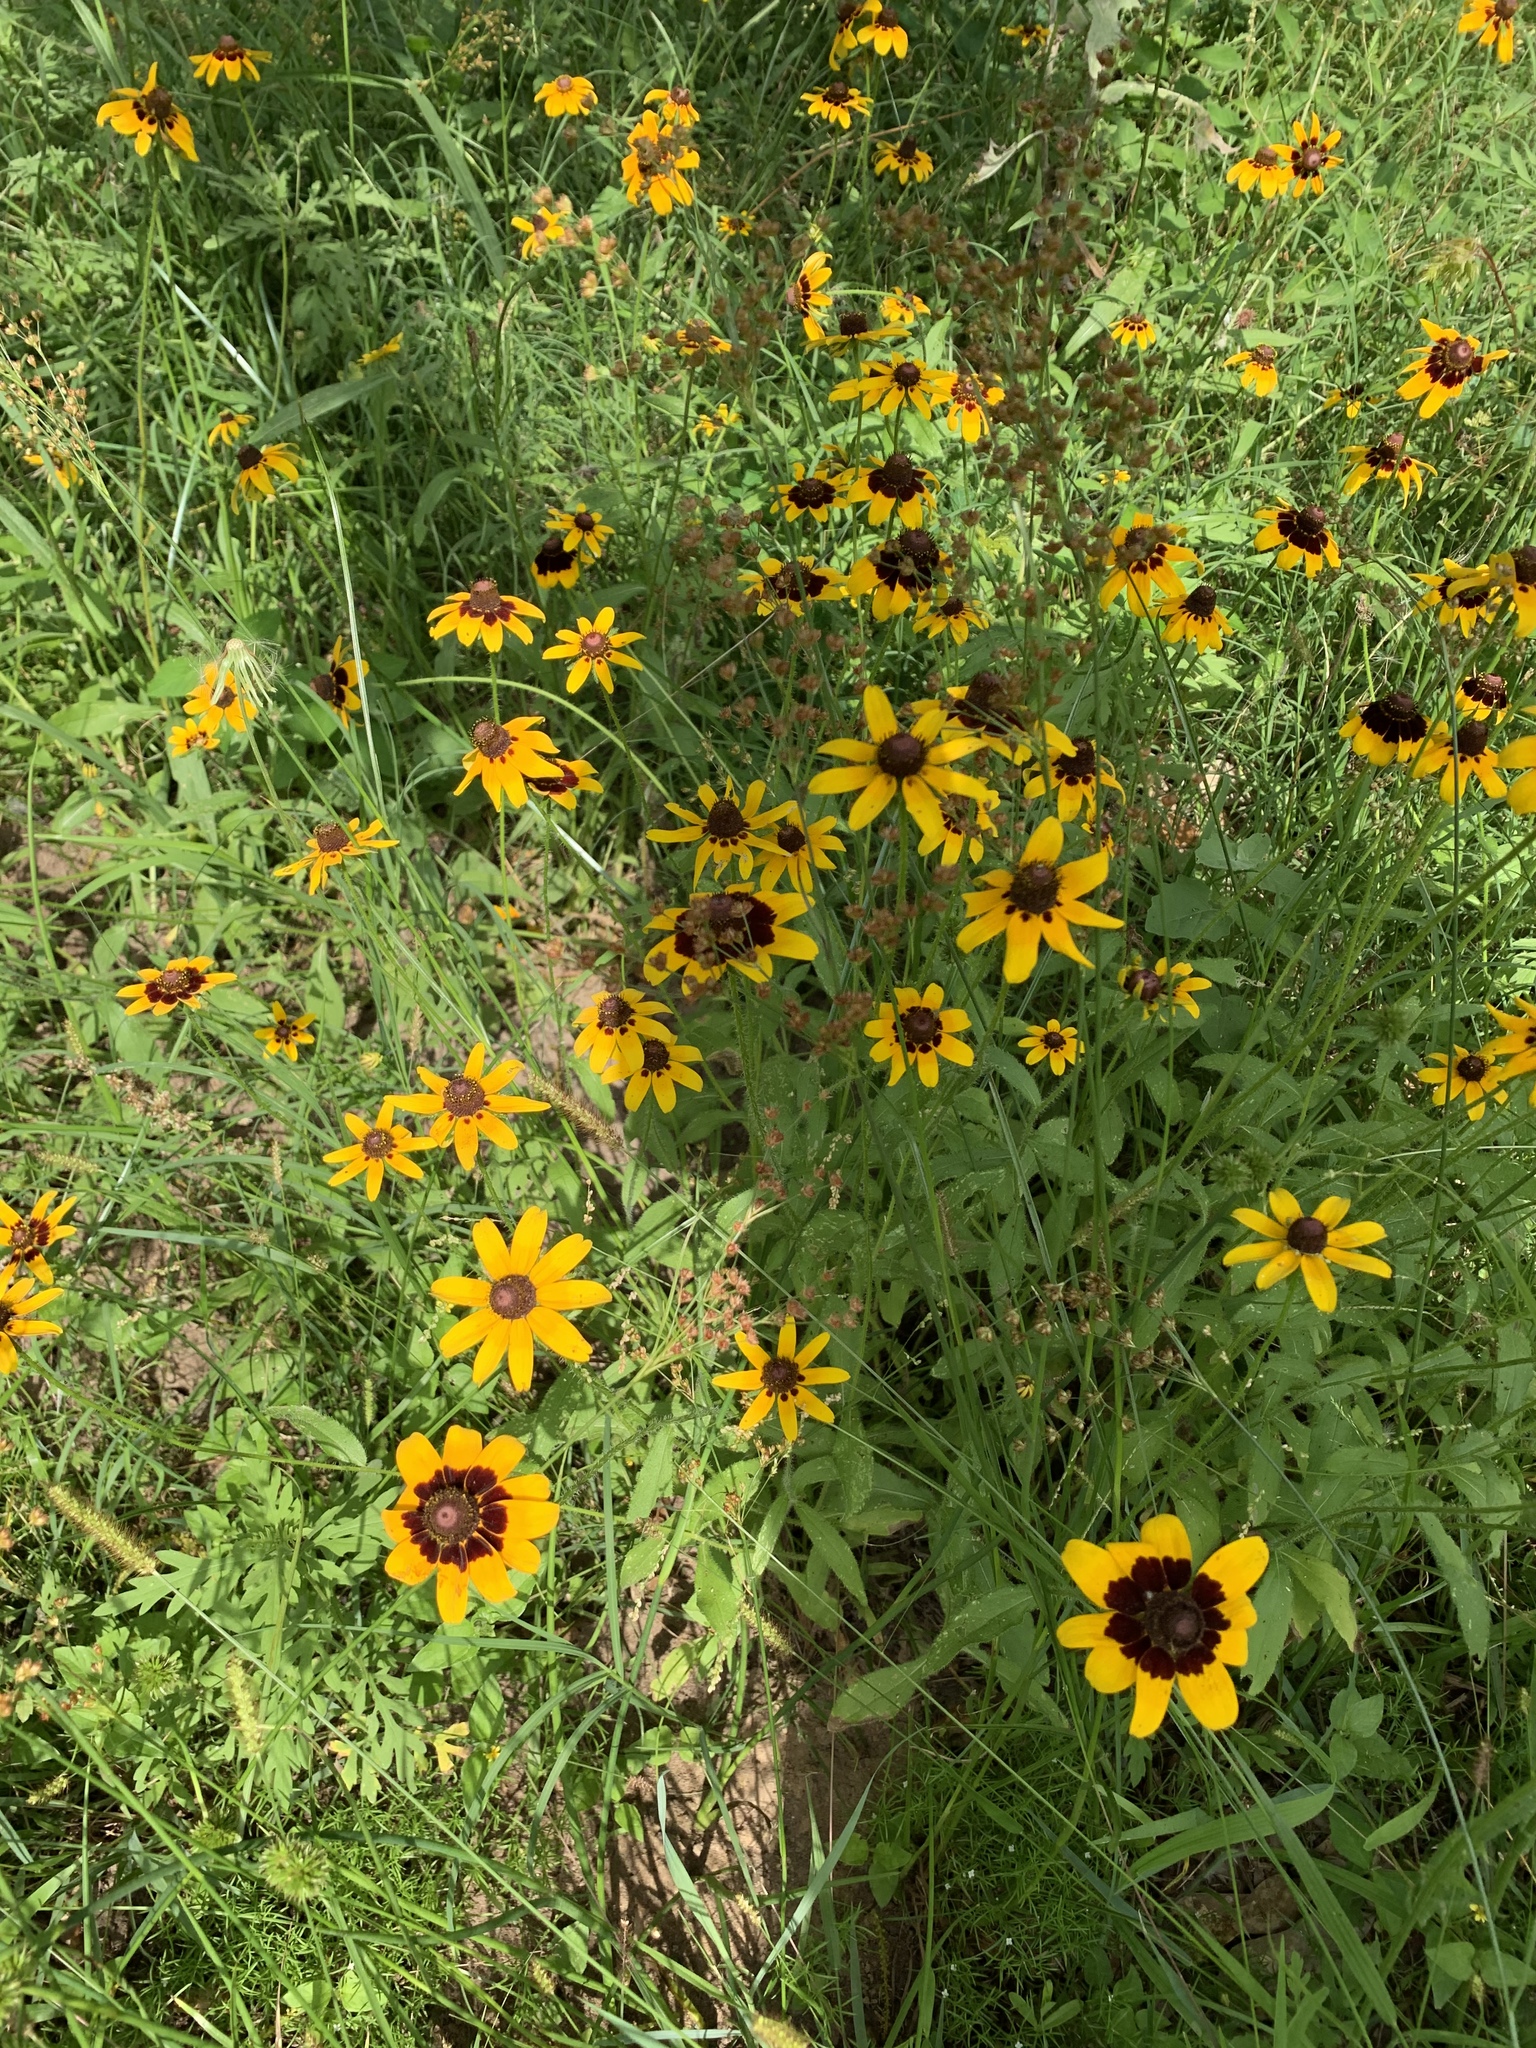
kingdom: Plantae
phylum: Tracheophyta
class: Magnoliopsida
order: Asterales
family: Asteraceae
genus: Rudbeckia
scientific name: Rudbeckia hirta
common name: Black-eyed-susan
